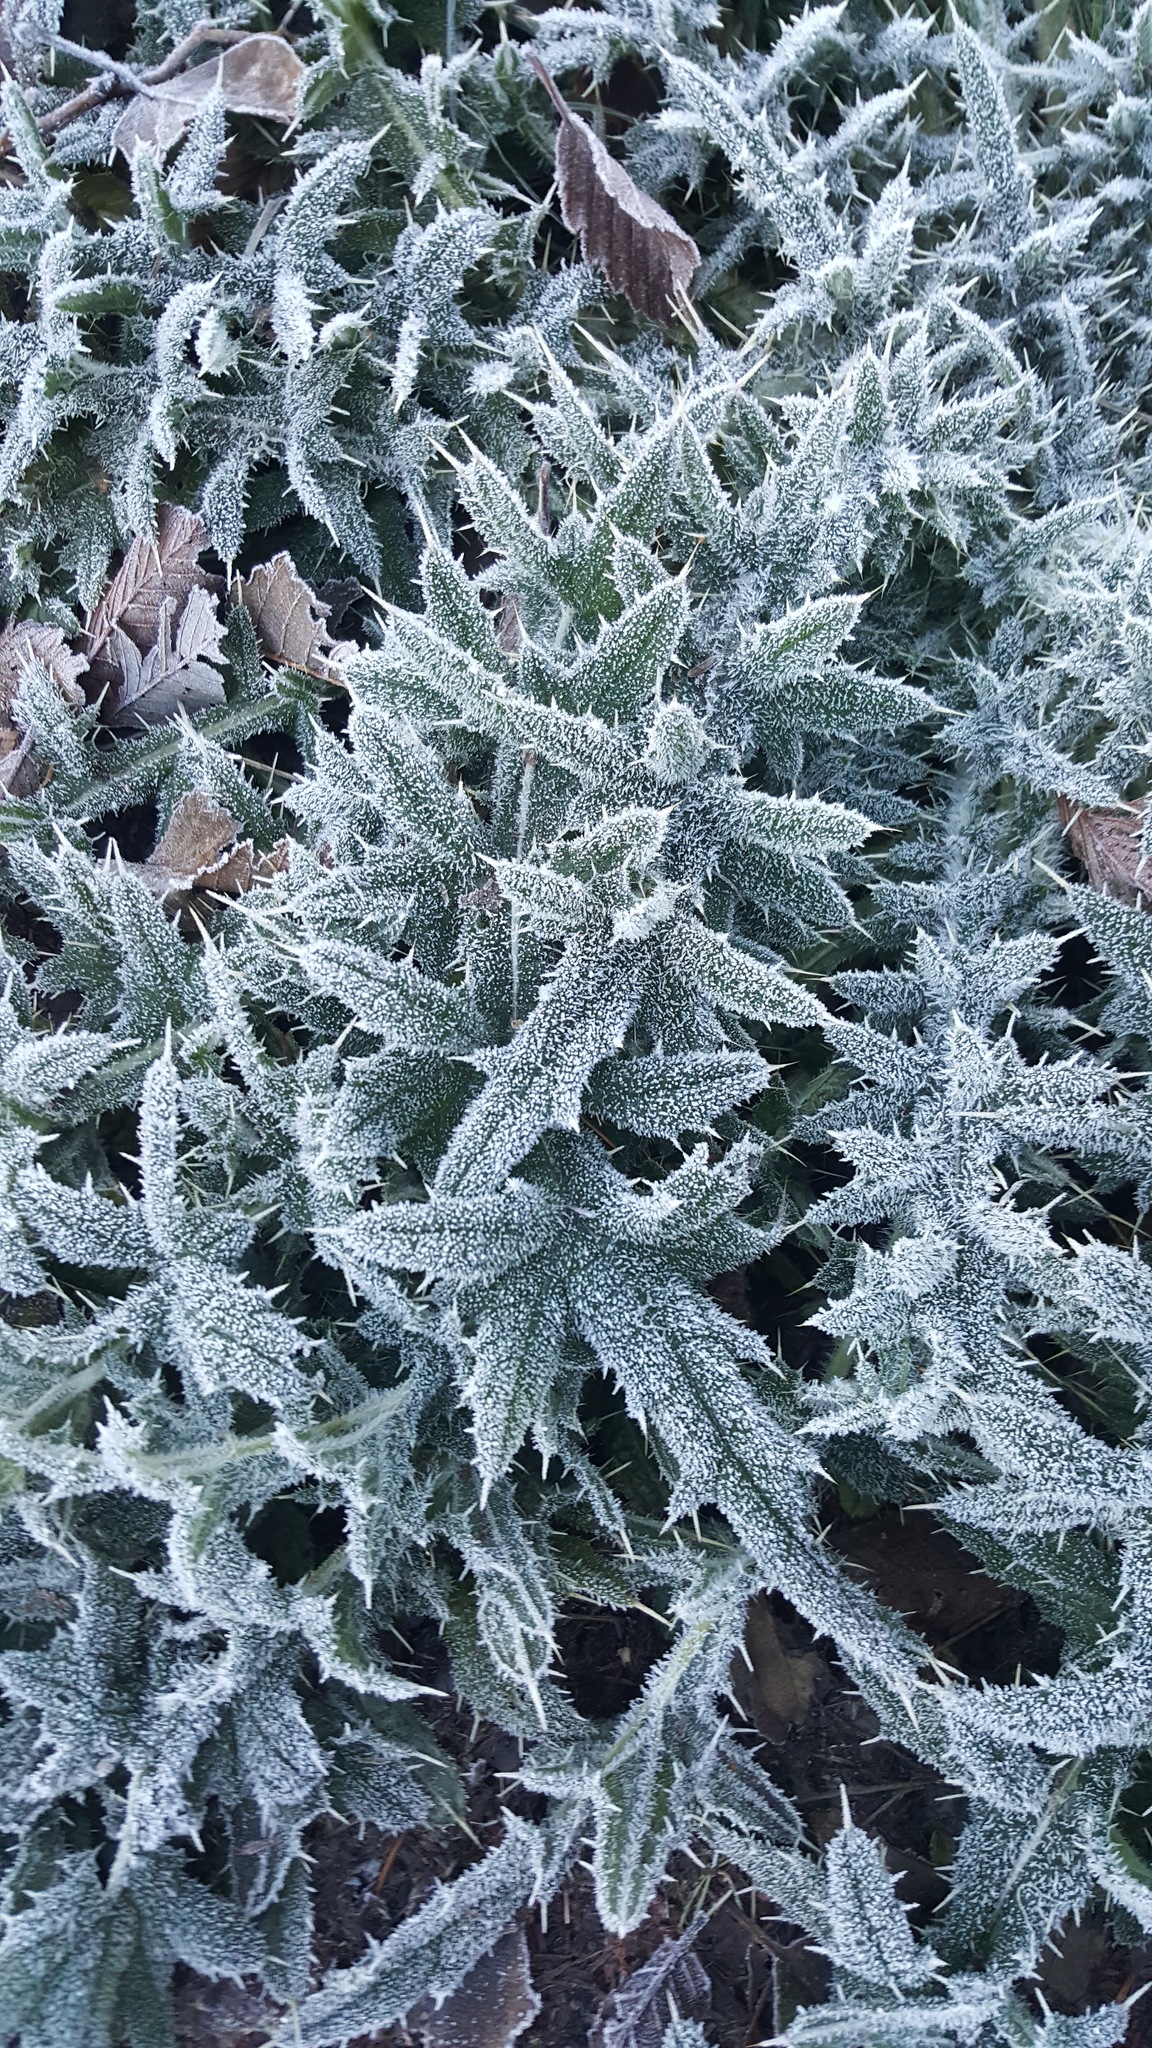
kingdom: Plantae
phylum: Tracheophyta
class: Magnoliopsida
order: Asterales
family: Asteraceae
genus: Cirsium
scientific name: Cirsium vulgare
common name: Bull thistle
